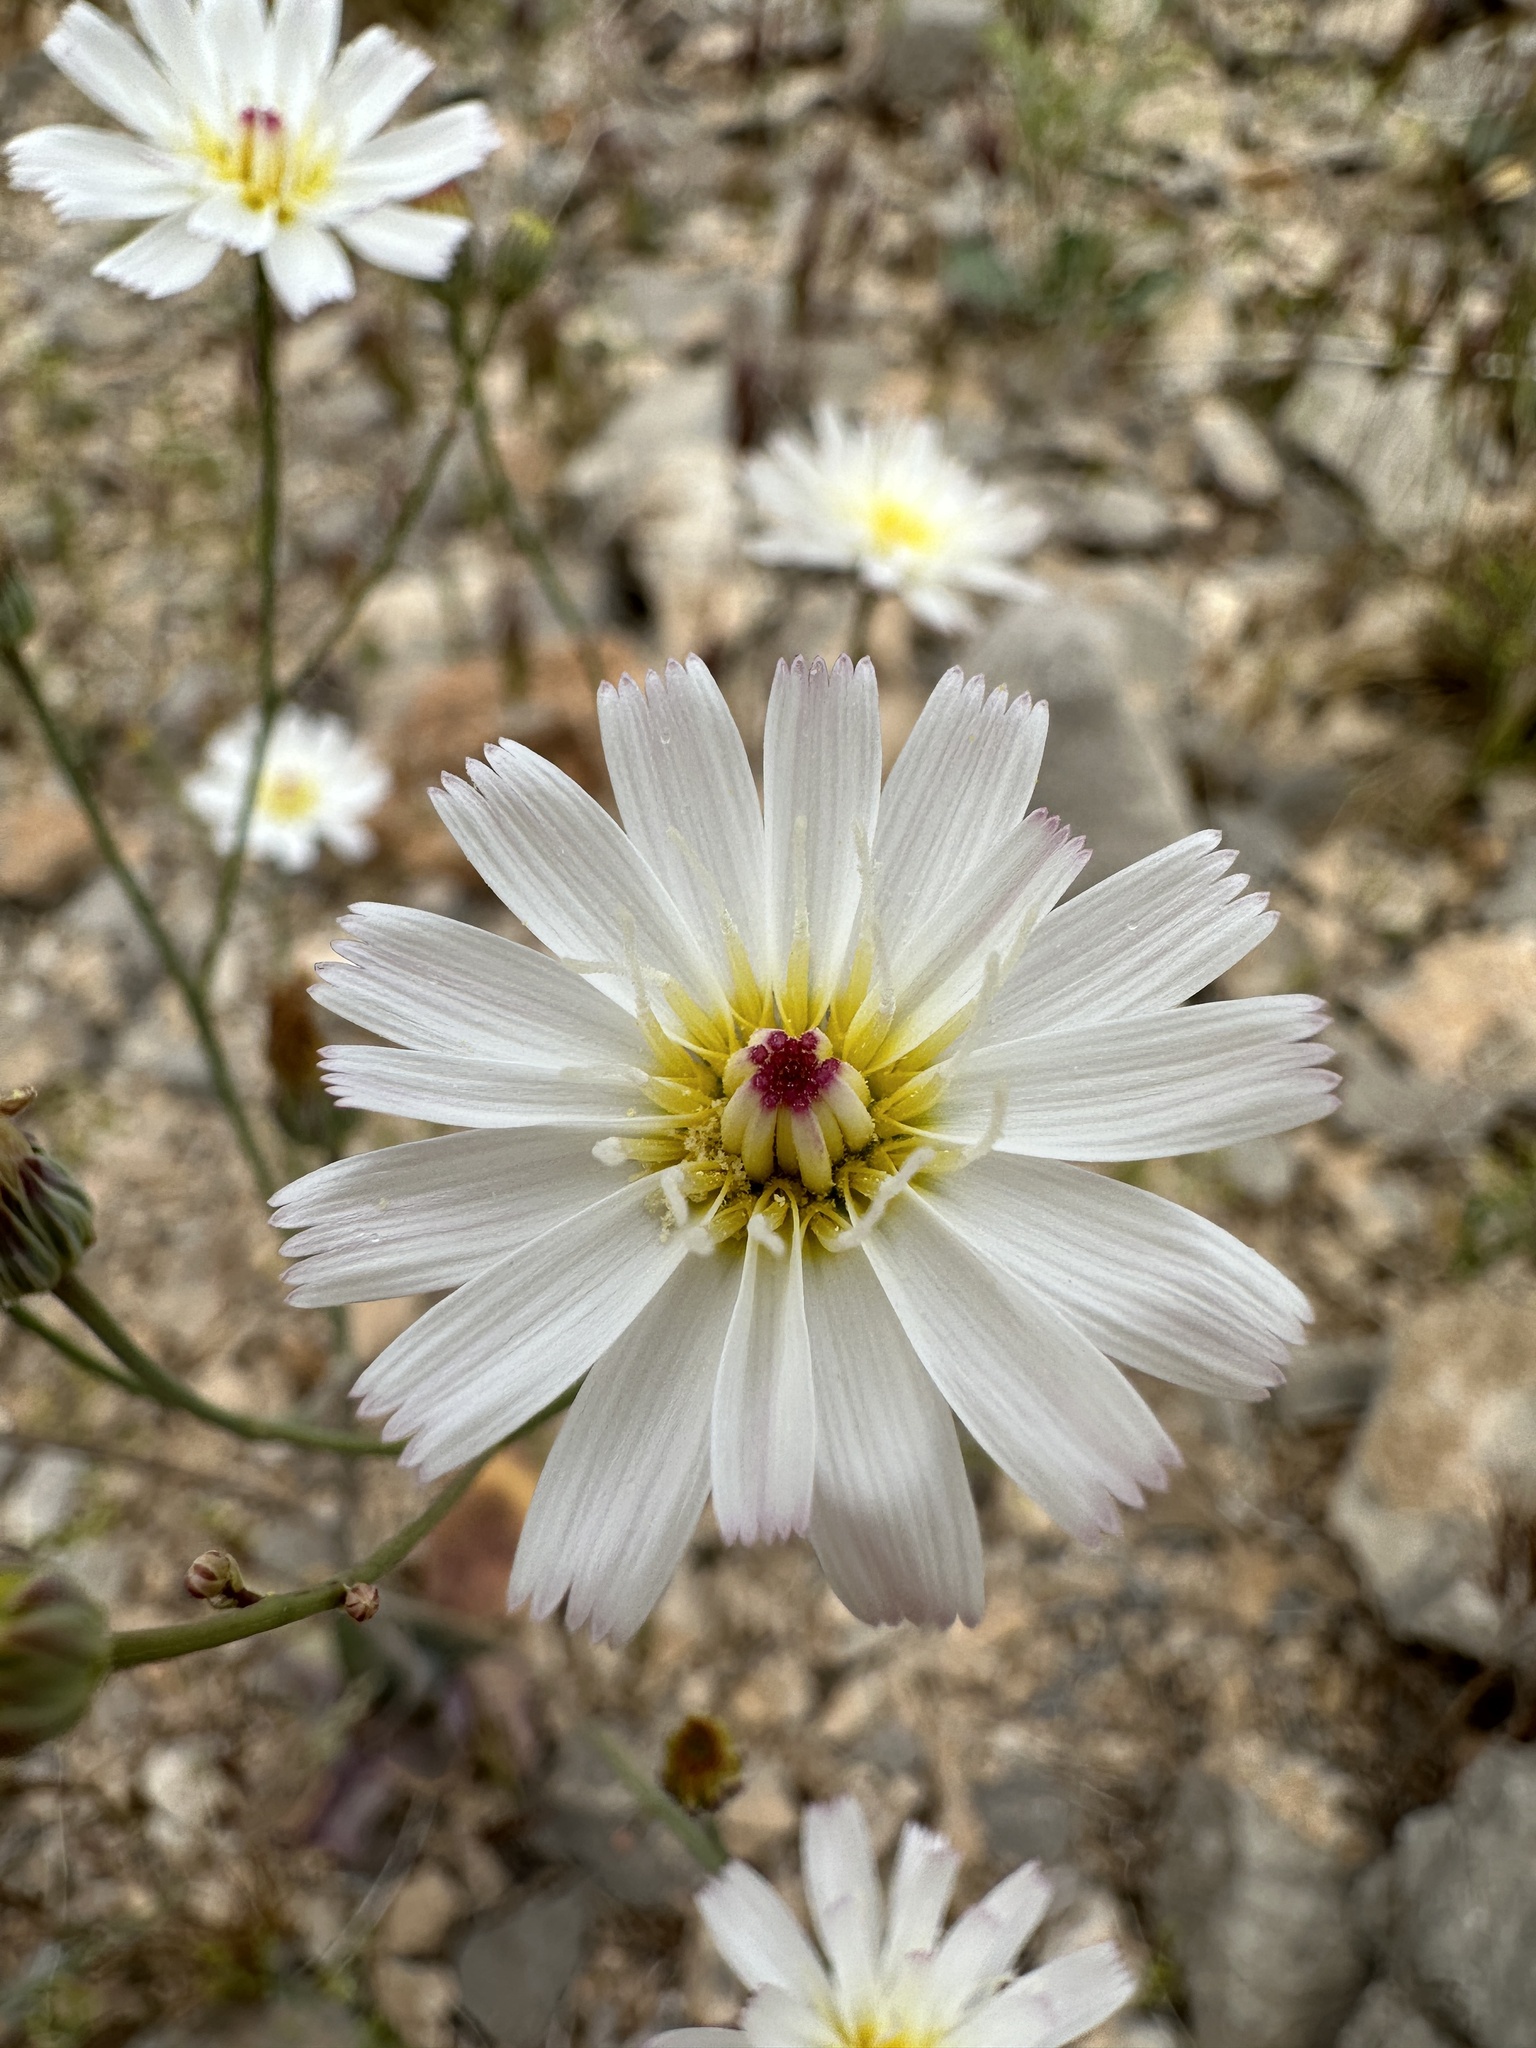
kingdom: Plantae
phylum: Tracheophyta
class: Magnoliopsida
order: Asterales
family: Asteraceae
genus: Atrichoseris
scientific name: Atrichoseris platyphylla
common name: Tobaccoweed
